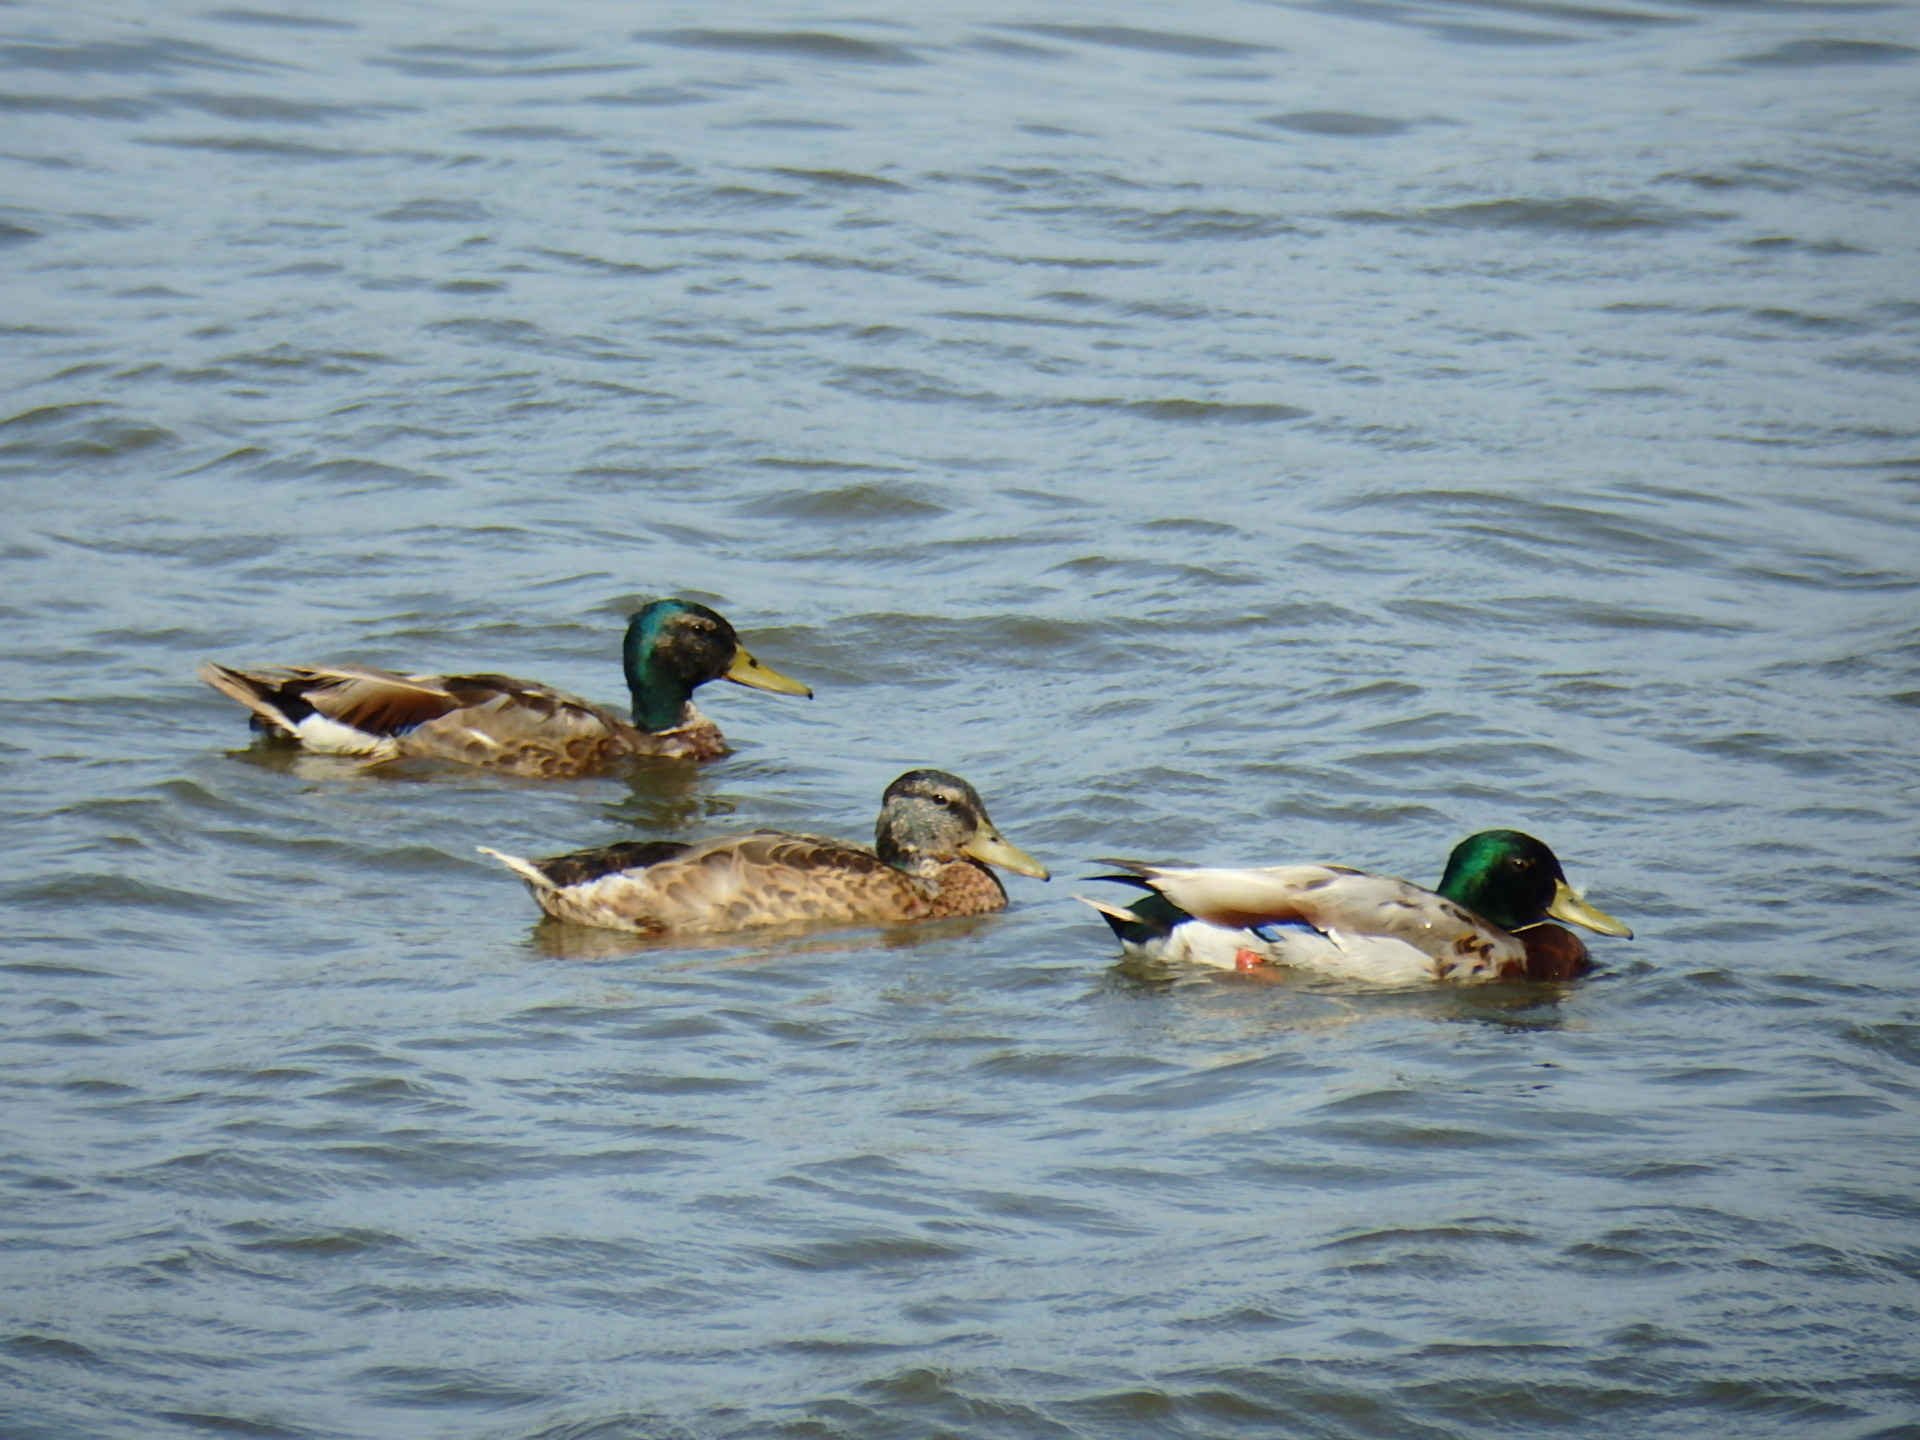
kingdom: Animalia
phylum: Chordata
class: Aves
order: Anseriformes
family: Anatidae
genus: Anas
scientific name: Anas platyrhynchos
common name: Mallard
